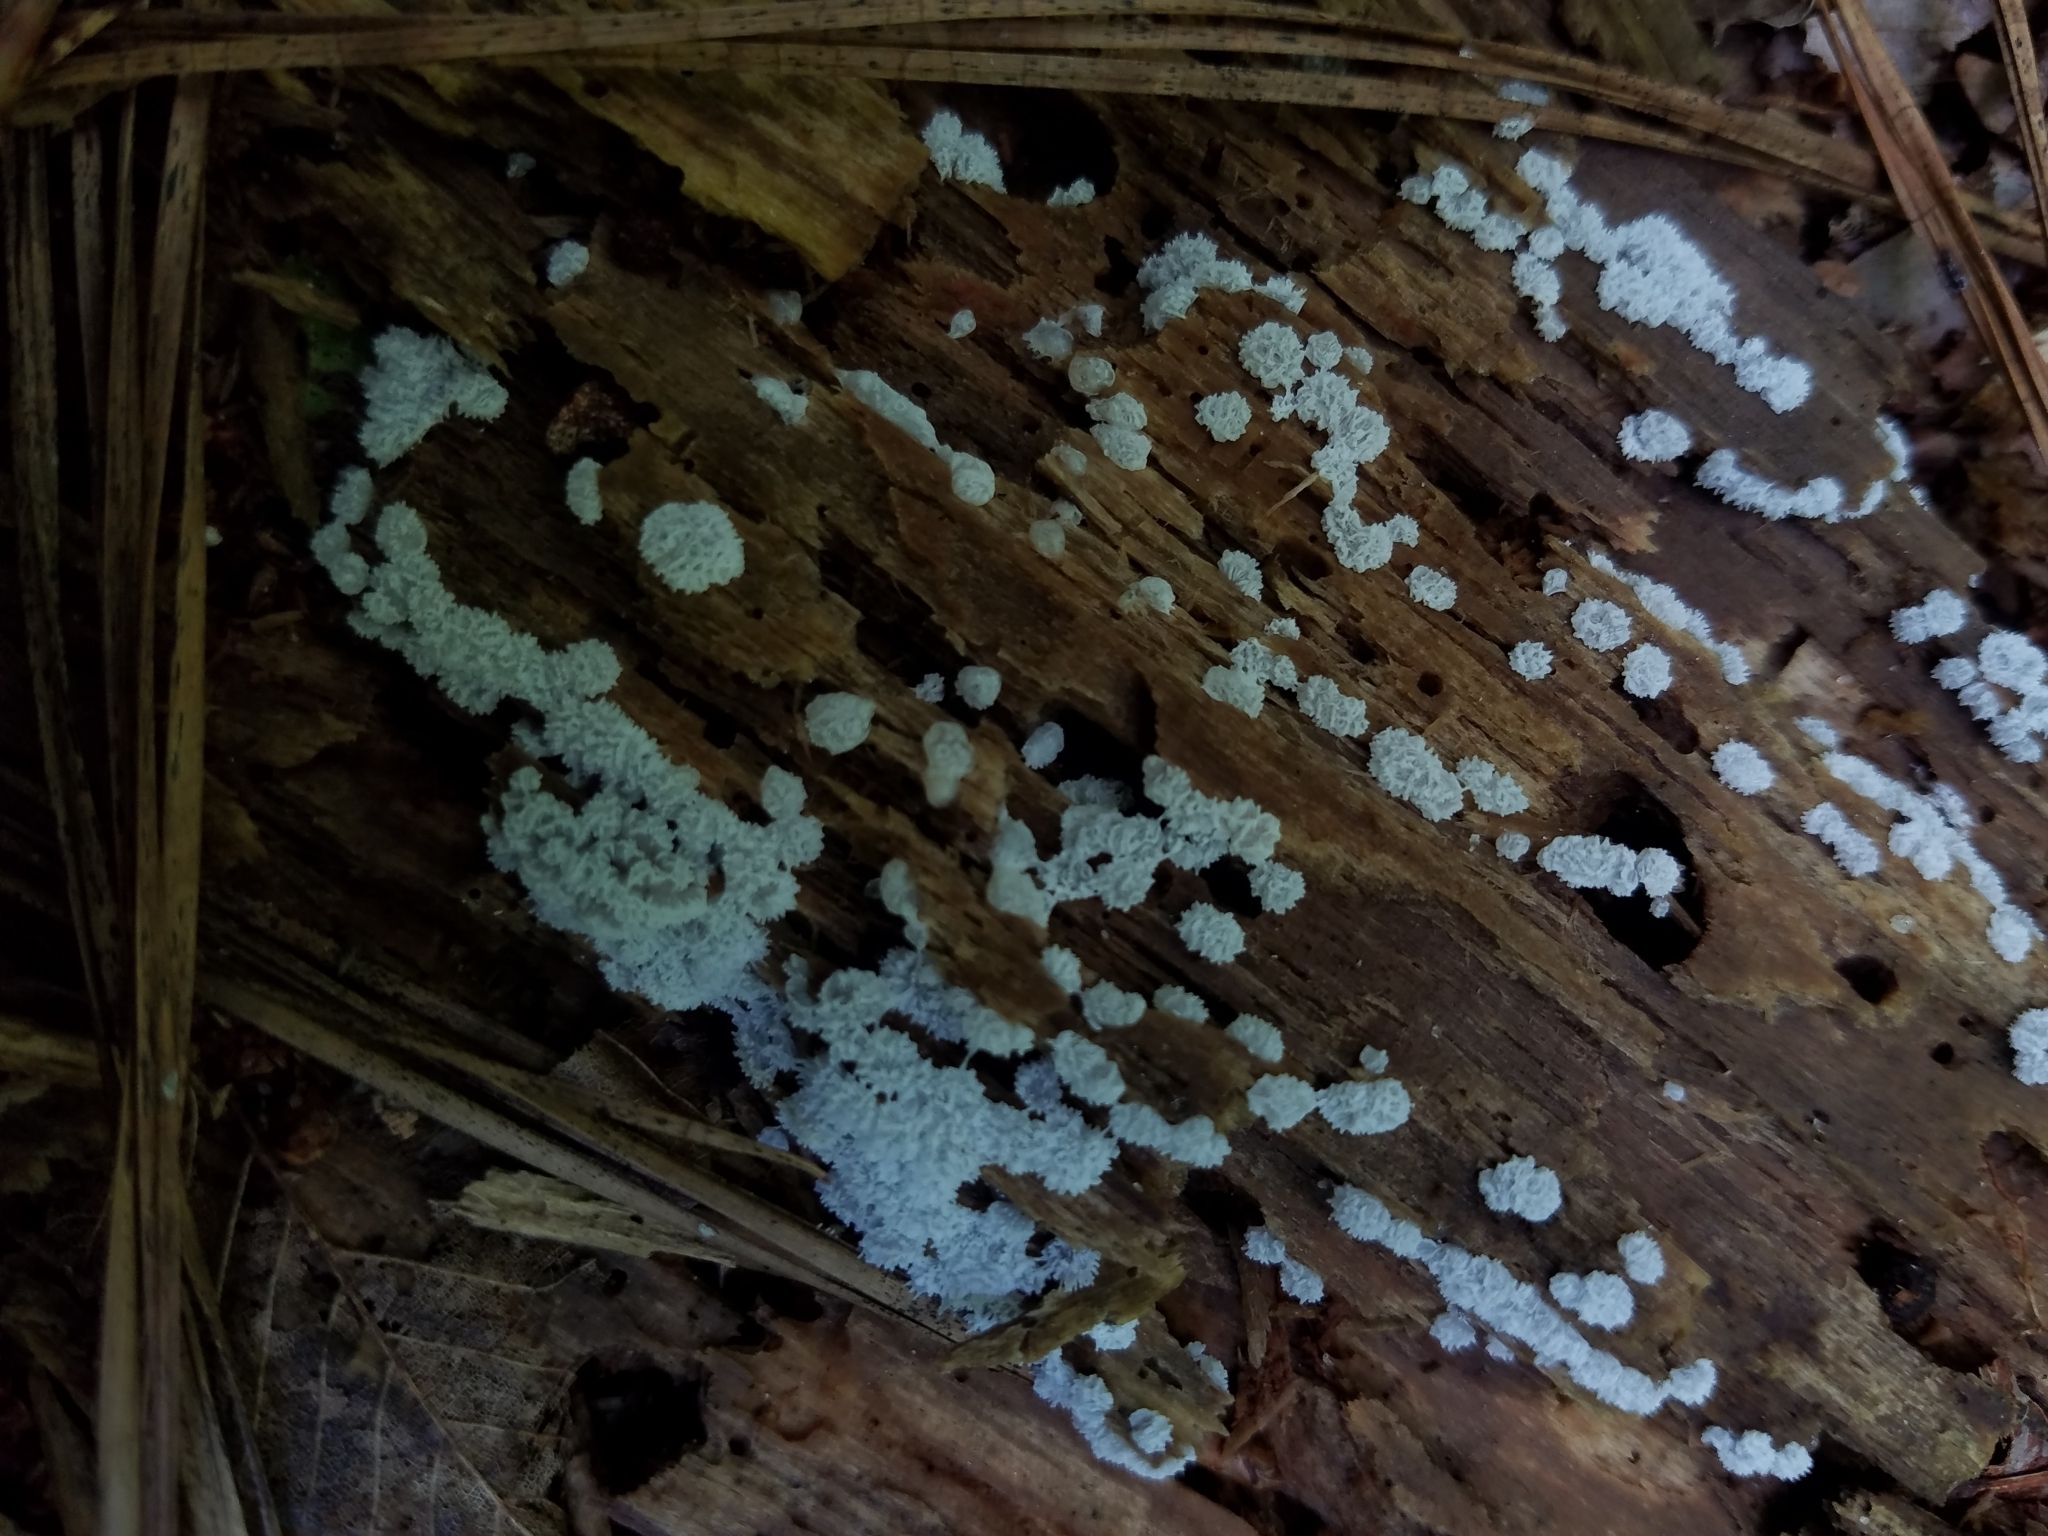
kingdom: Protozoa
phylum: Mycetozoa
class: Protosteliomycetes
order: Ceratiomyxales
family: Ceratiomyxaceae
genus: Ceratiomyxa
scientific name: Ceratiomyxa fruticulosa
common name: Honeycomb coral slime mold
